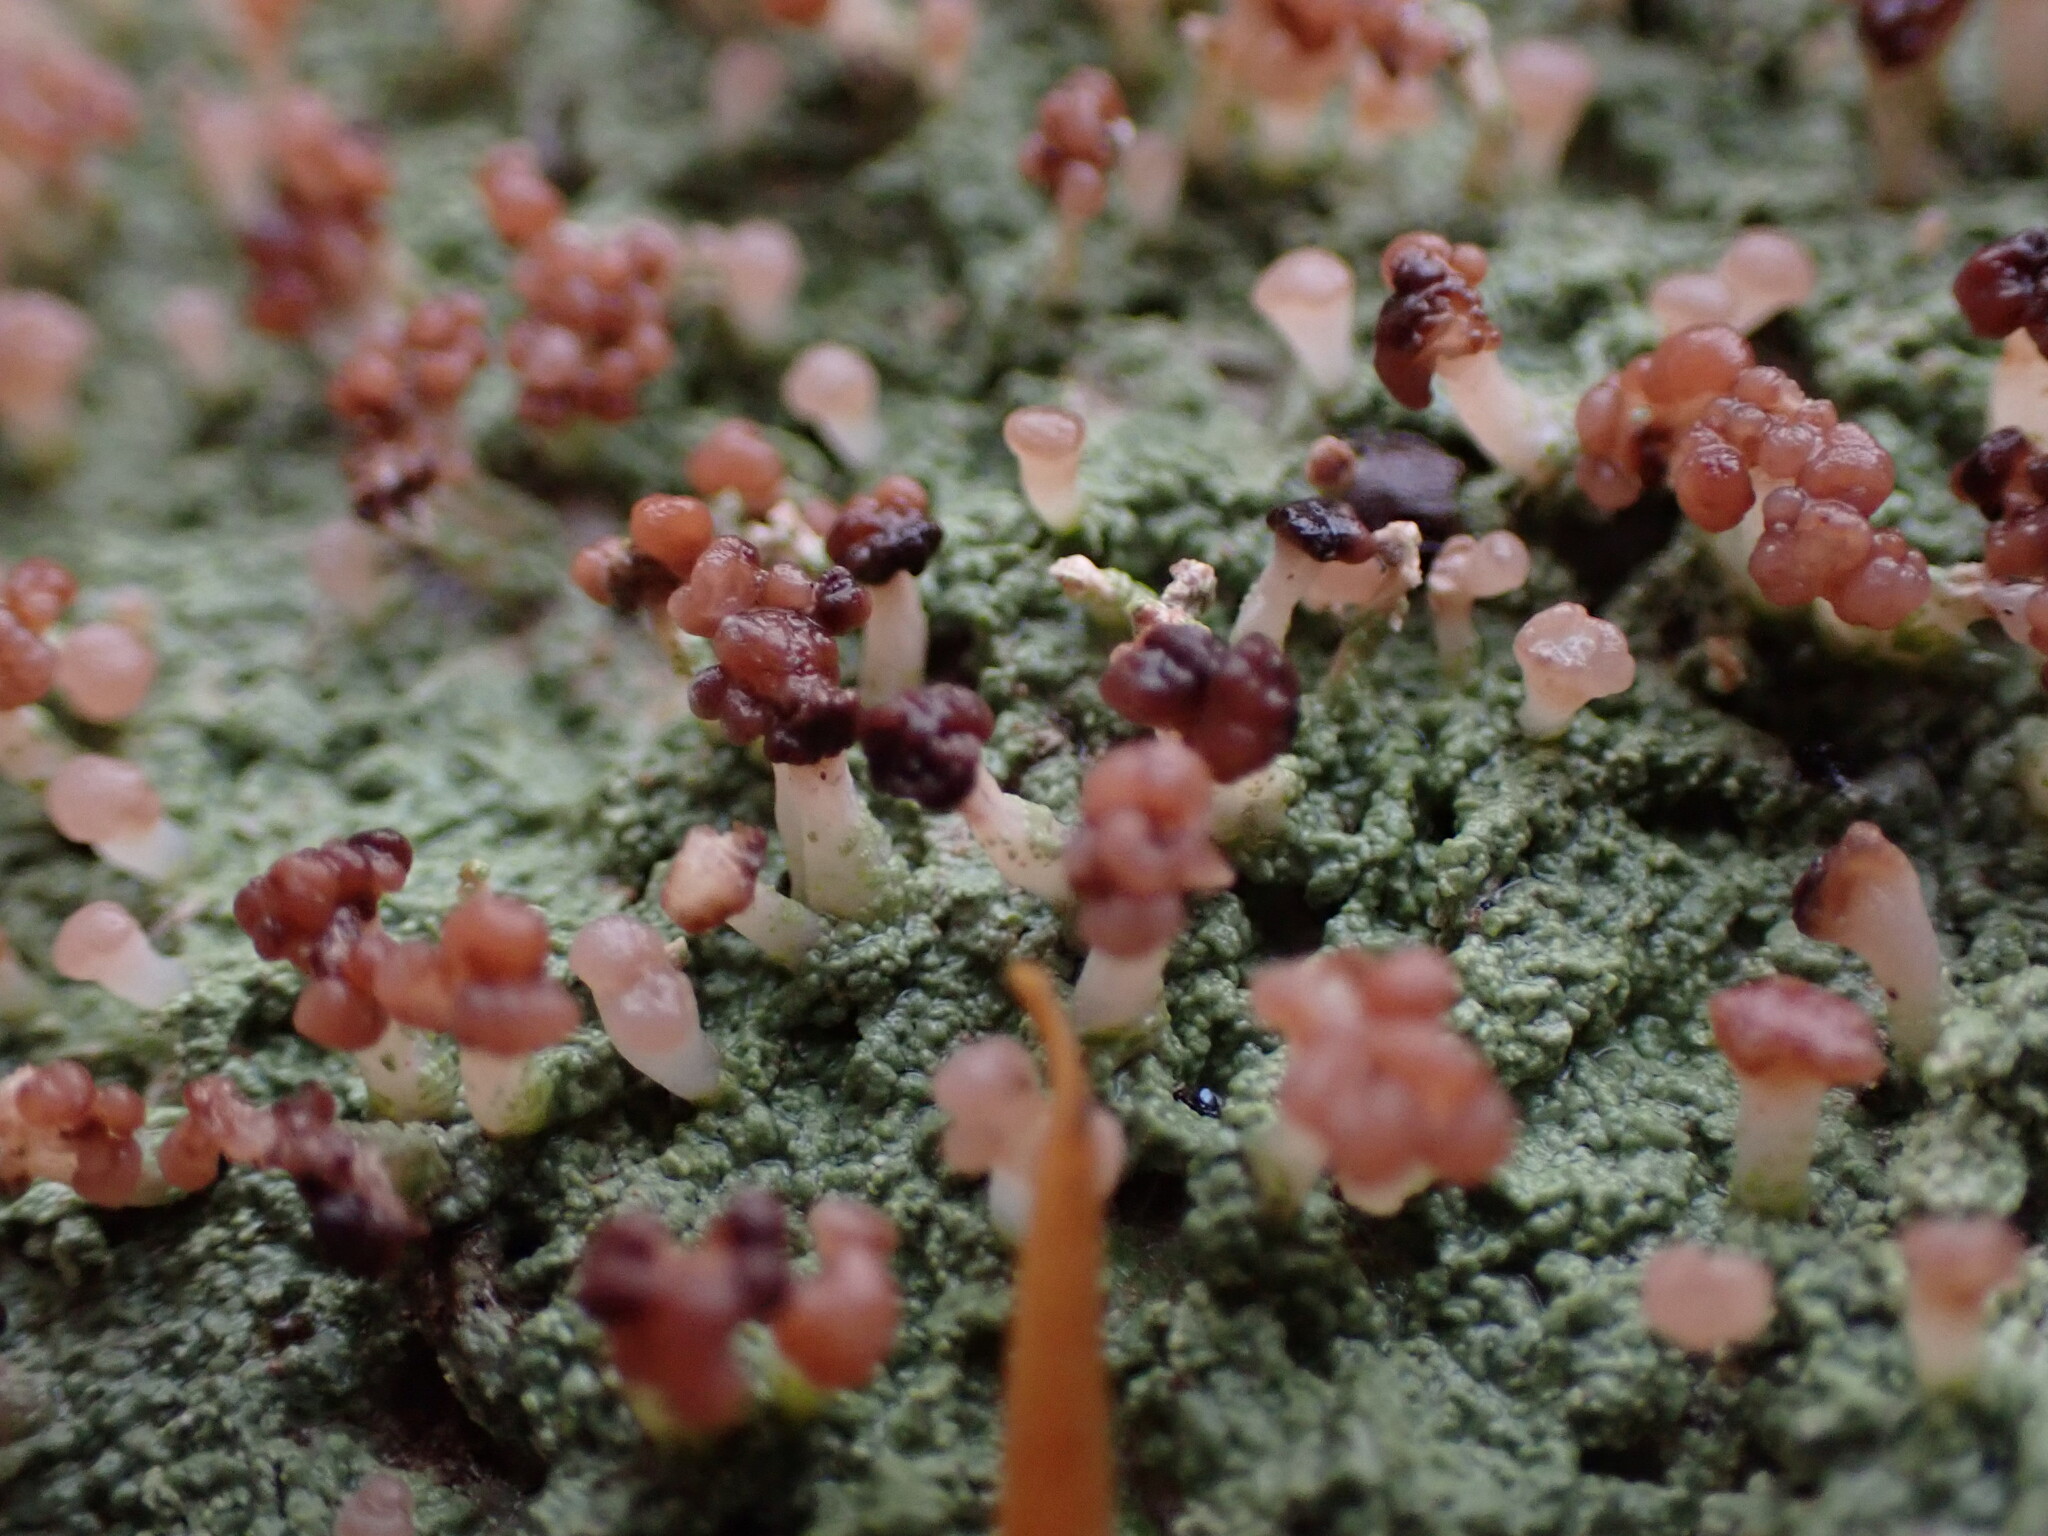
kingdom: Fungi
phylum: Ascomycota
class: Lecanoromycetes
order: Baeomycetales
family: Baeomycetaceae
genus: Baeomyces
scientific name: Baeomyces rufus
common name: Brown beret lichen
